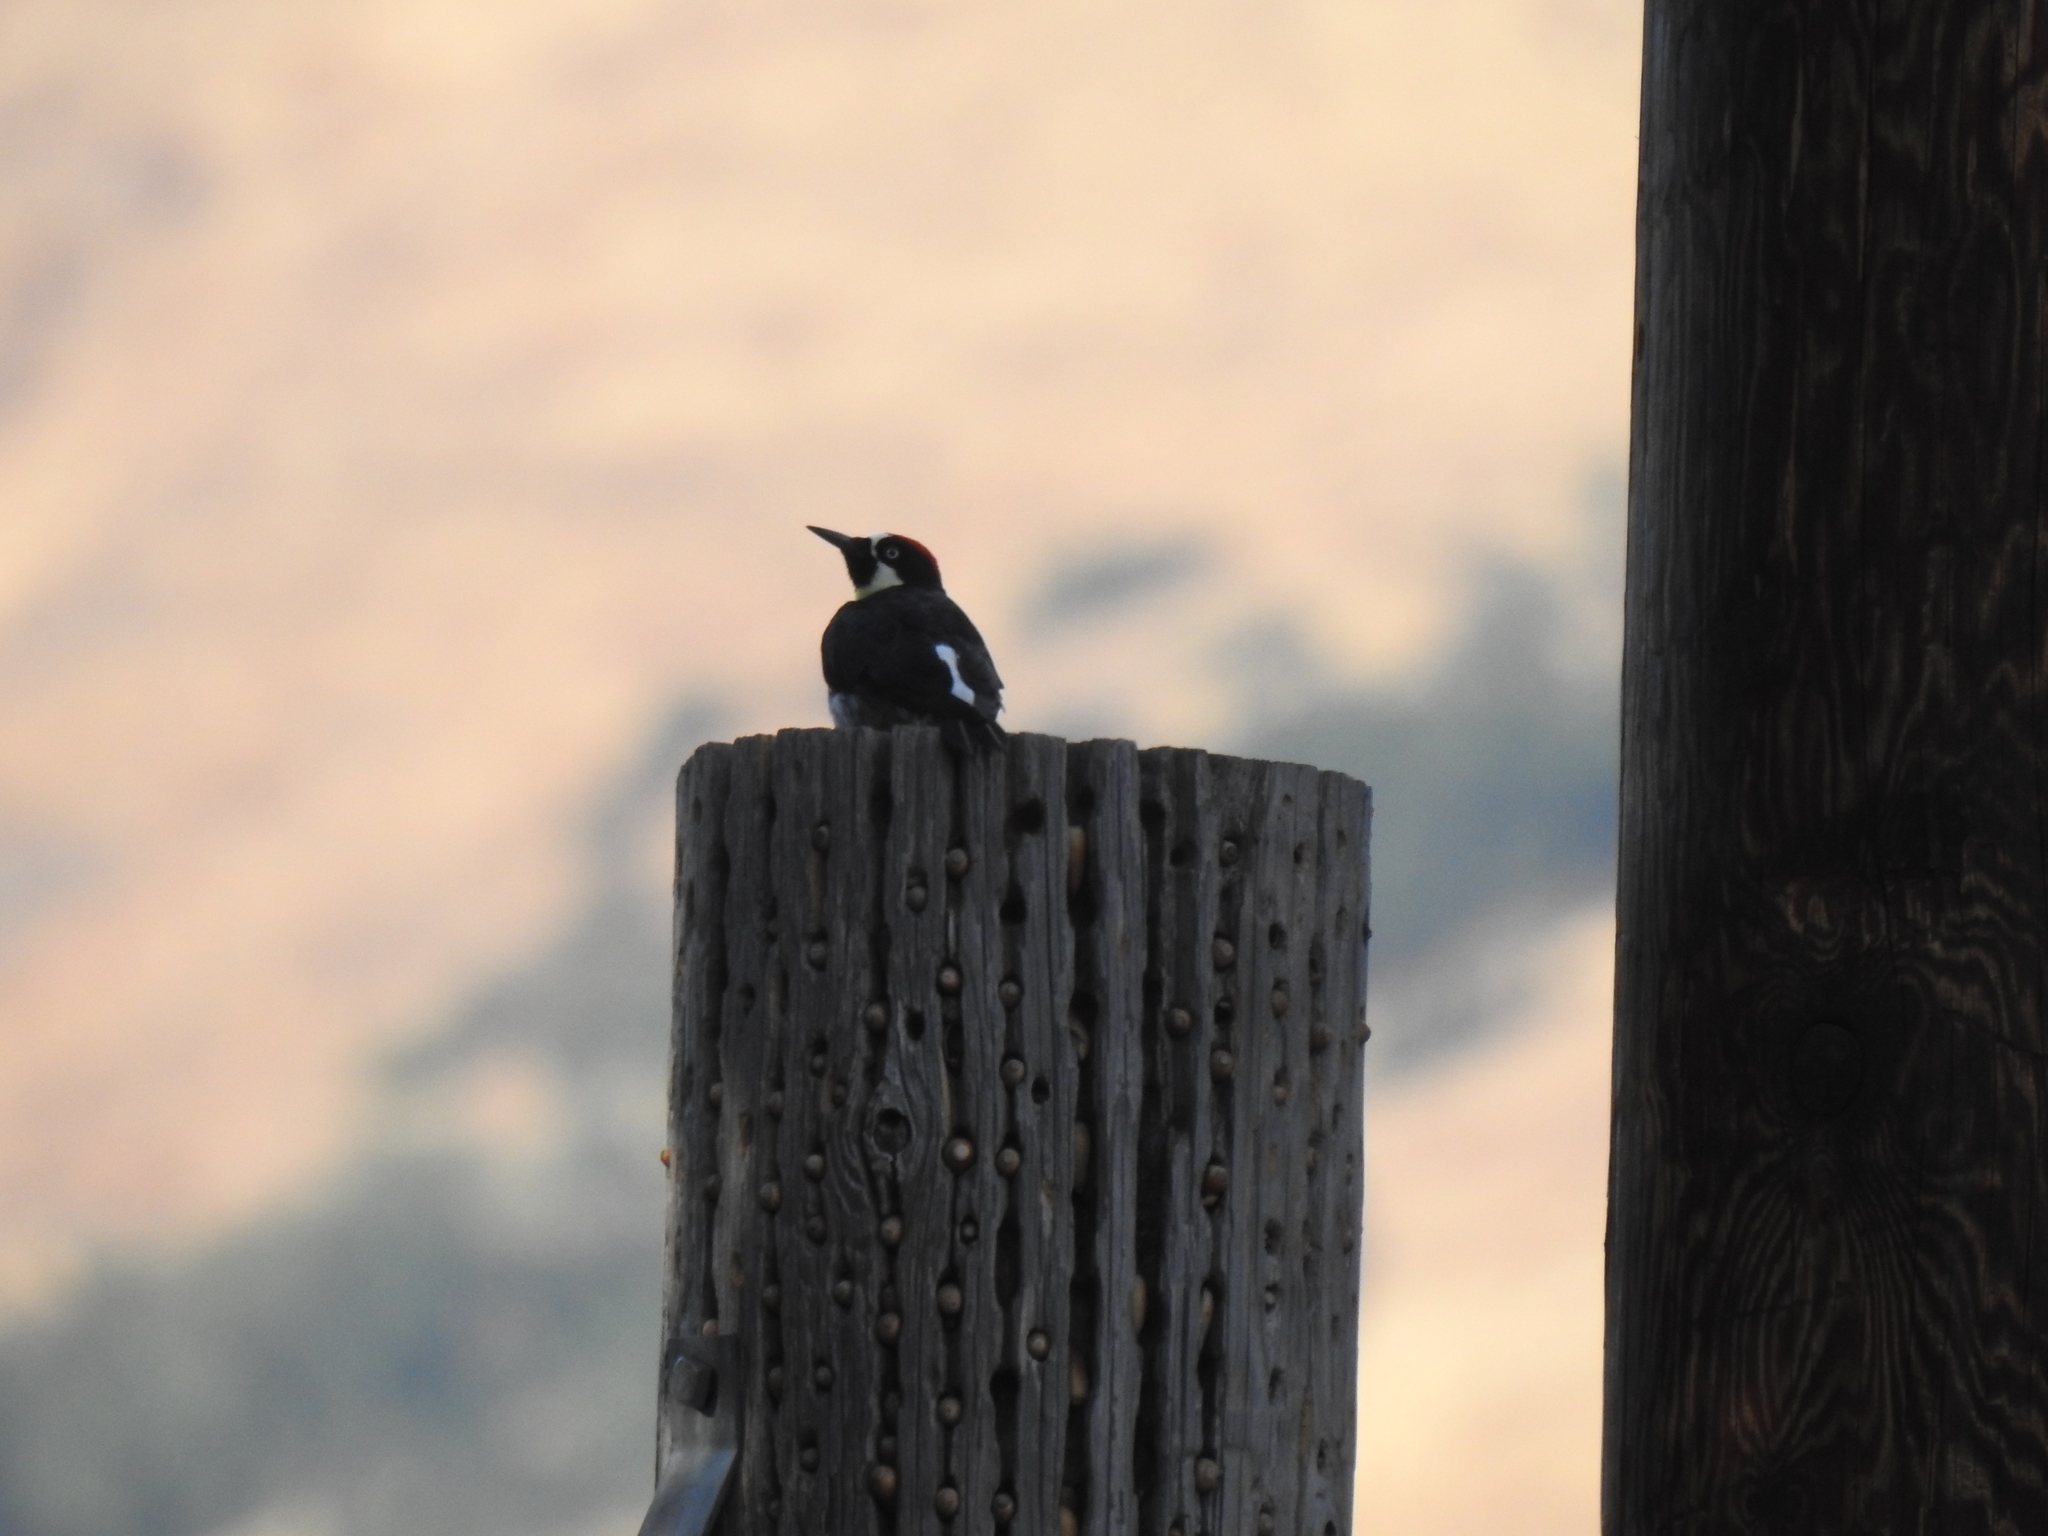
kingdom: Animalia
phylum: Chordata
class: Aves
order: Piciformes
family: Picidae
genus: Melanerpes
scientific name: Melanerpes formicivorus
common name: Acorn woodpecker
